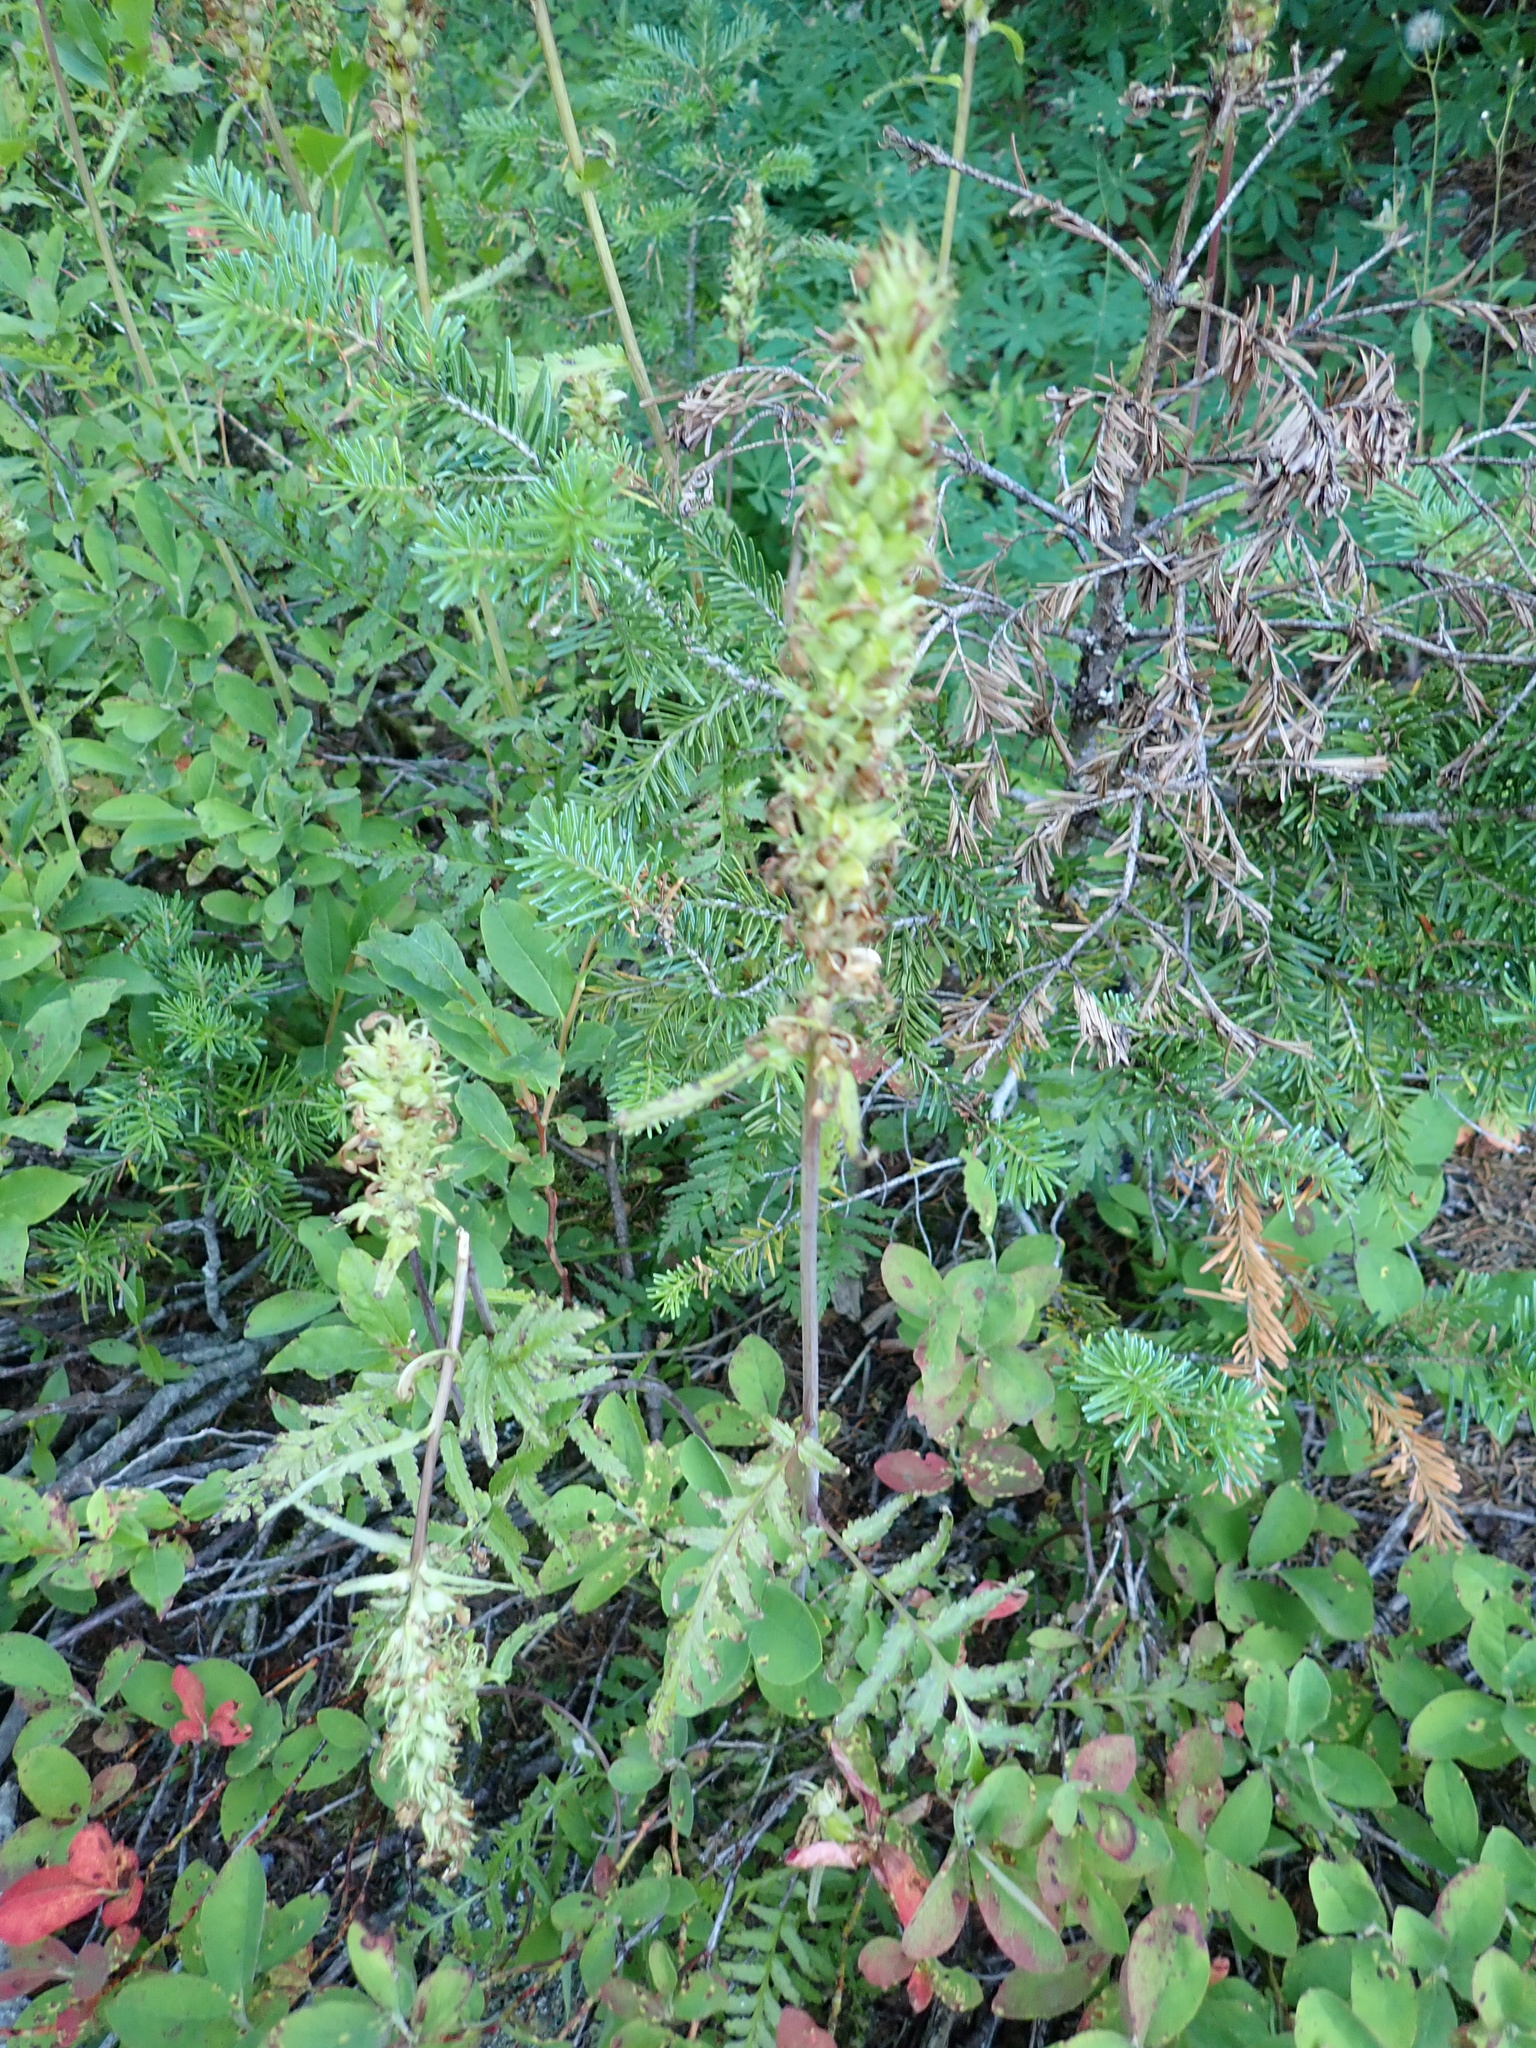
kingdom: Plantae
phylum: Tracheophyta
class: Magnoliopsida
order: Lamiales
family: Orobanchaceae
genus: Pedicularis
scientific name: Pedicularis bracteosa
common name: Bracted lousewort
